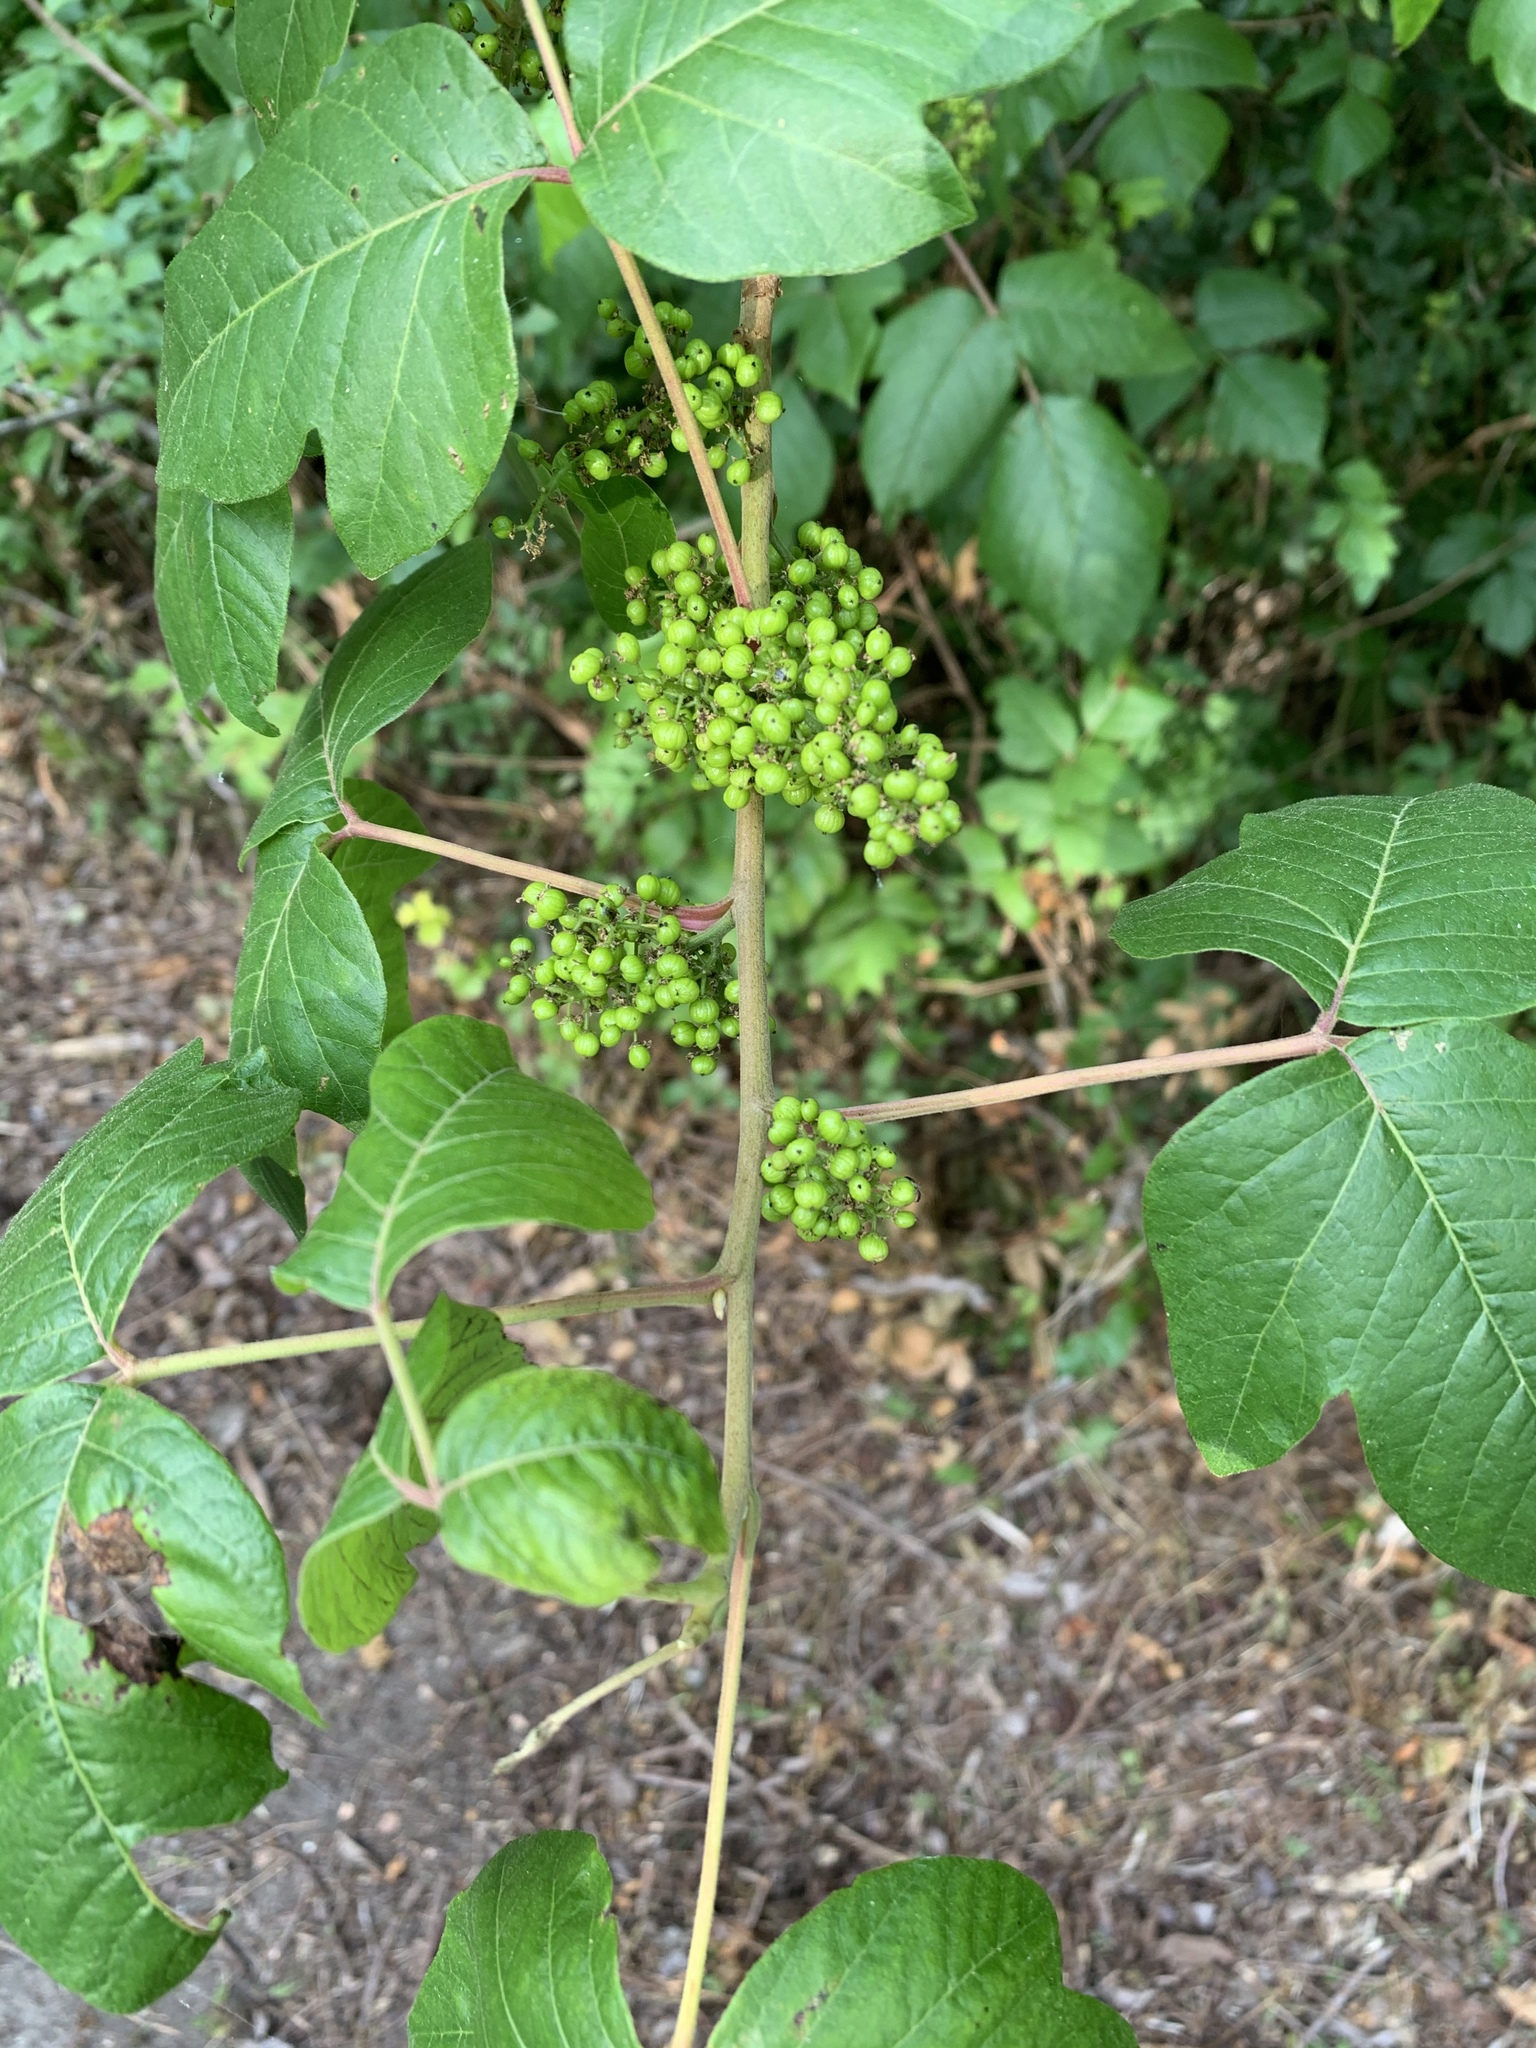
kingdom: Plantae
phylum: Tracheophyta
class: Magnoliopsida
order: Sapindales
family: Anacardiaceae
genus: Toxicodendron
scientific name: Toxicodendron radicans
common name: Poison ivy
